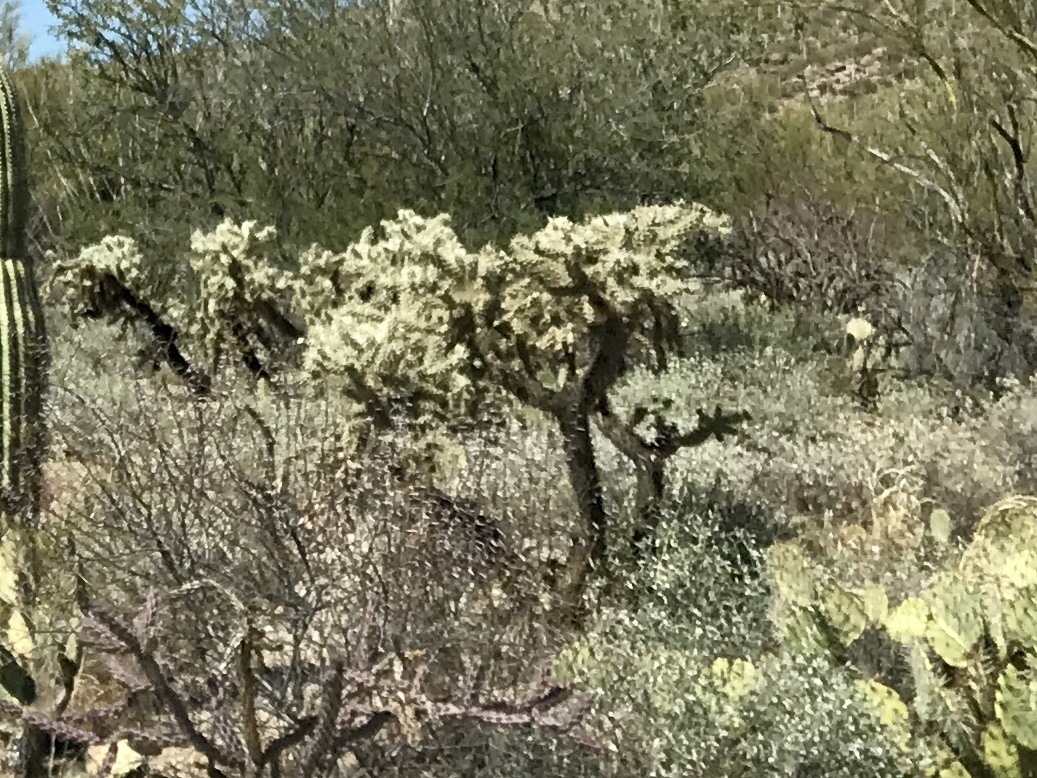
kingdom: Plantae
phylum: Tracheophyta
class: Magnoliopsida
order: Caryophyllales
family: Cactaceae
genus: Cylindropuntia
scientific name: Cylindropuntia fulgida
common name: Jumping cholla
